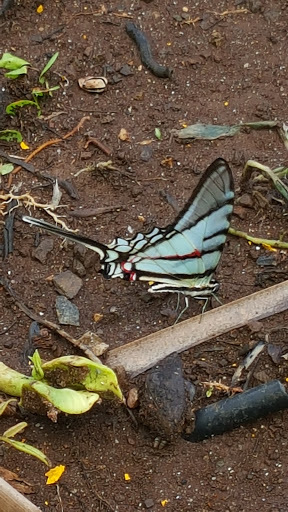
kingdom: Animalia
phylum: Arthropoda
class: Insecta
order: Lepidoptera
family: Papilionidae
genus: Protographium
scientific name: Protographium epidaus
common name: Mexican kite swallowtail
